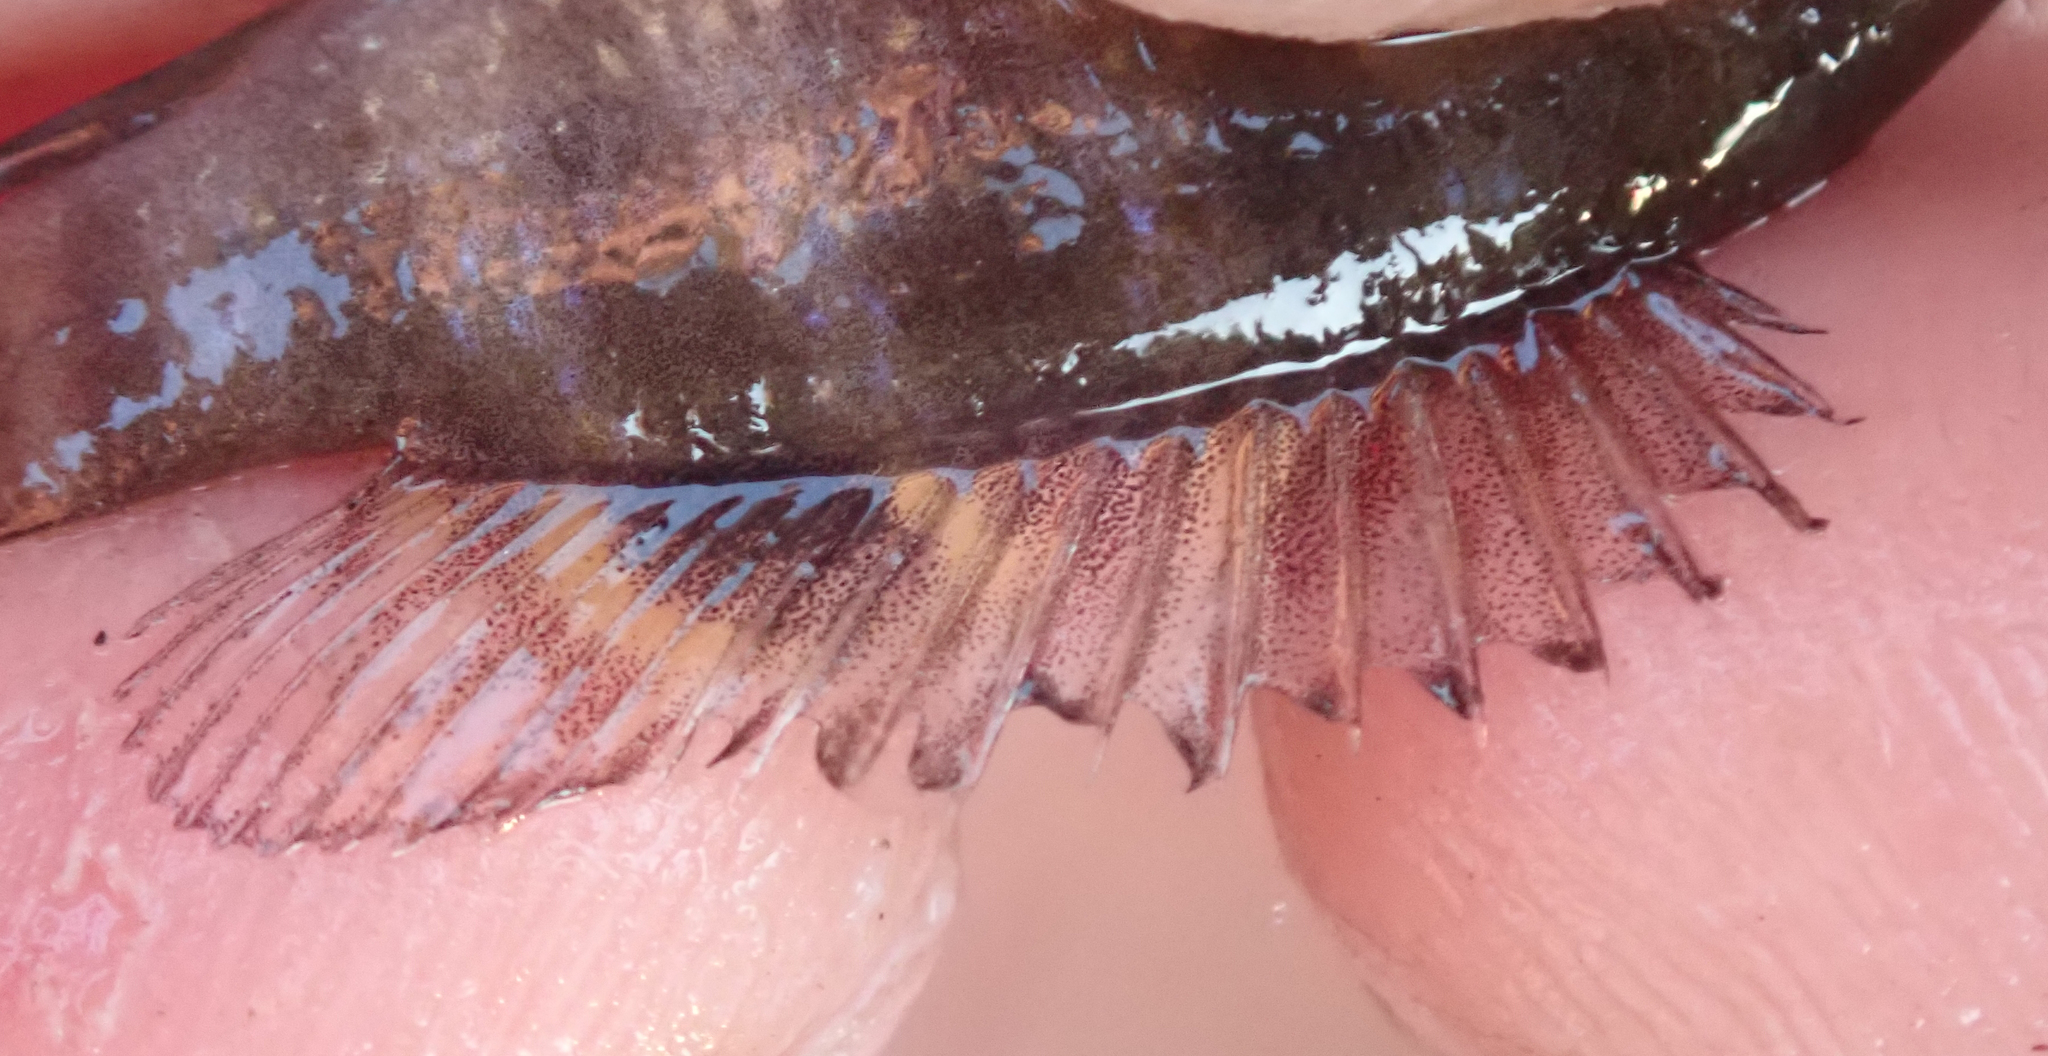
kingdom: Animalia
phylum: Chordata
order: Perciformes
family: Cichlidae
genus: Tilapia
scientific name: Tilapia sparrmanii
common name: Banded tilapia
